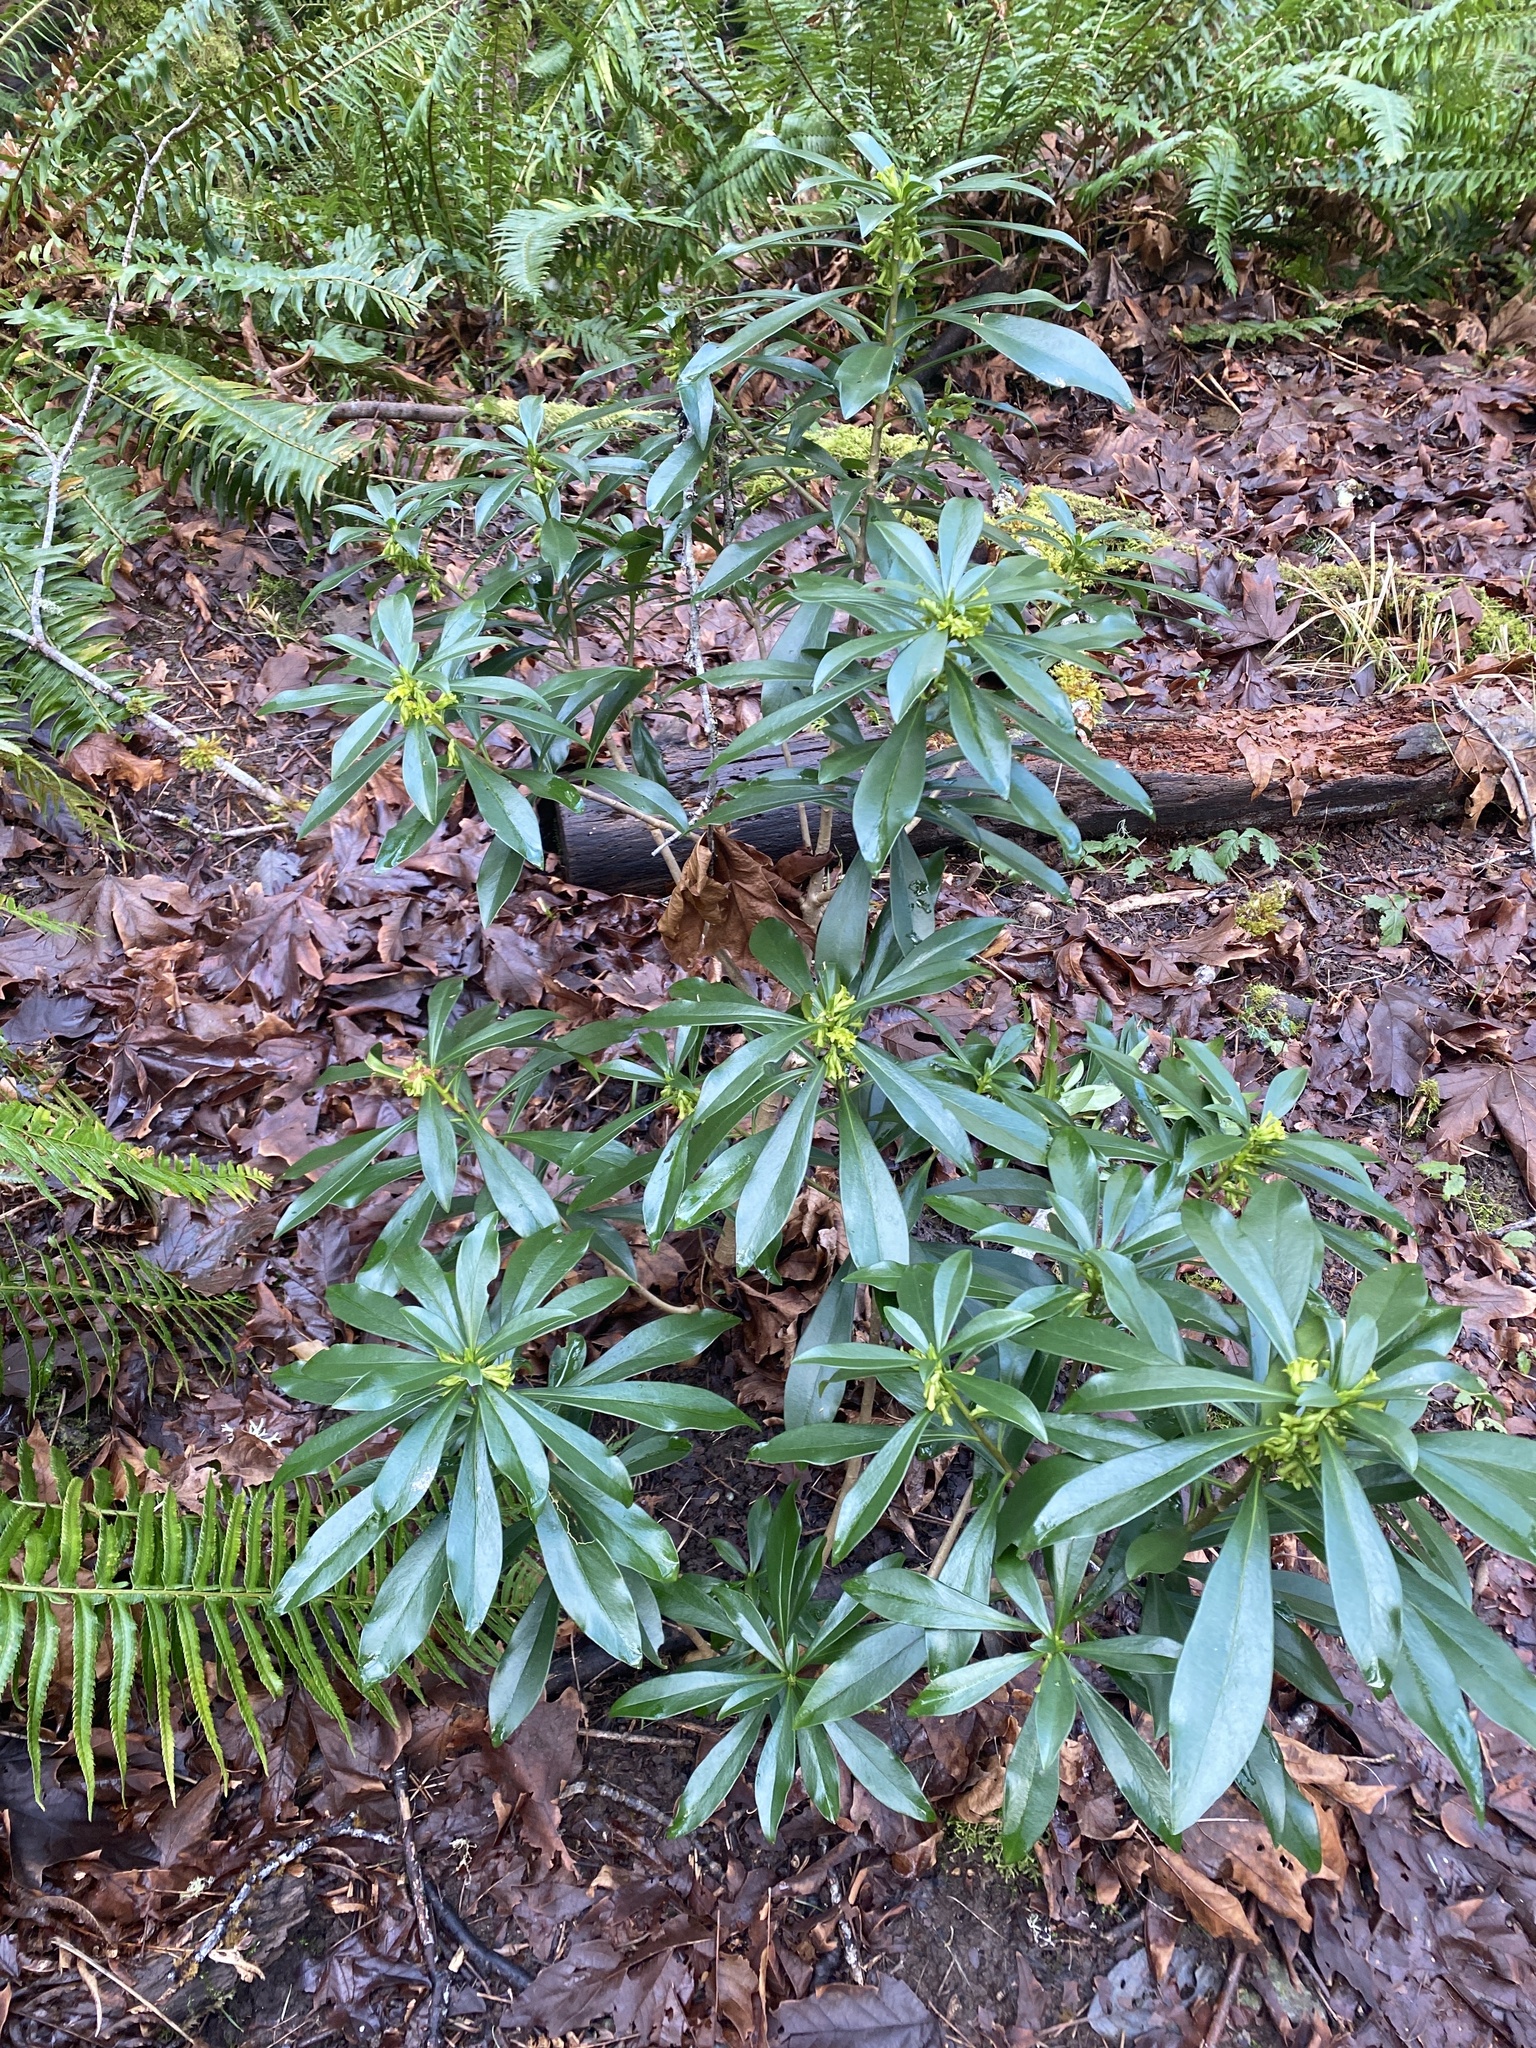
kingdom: Plantae
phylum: Tracheophyta
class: Magnoliopsida
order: Malvales
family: Thymelaeaceae
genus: Daphne
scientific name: Daphne laureola
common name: Spurge-laurel
